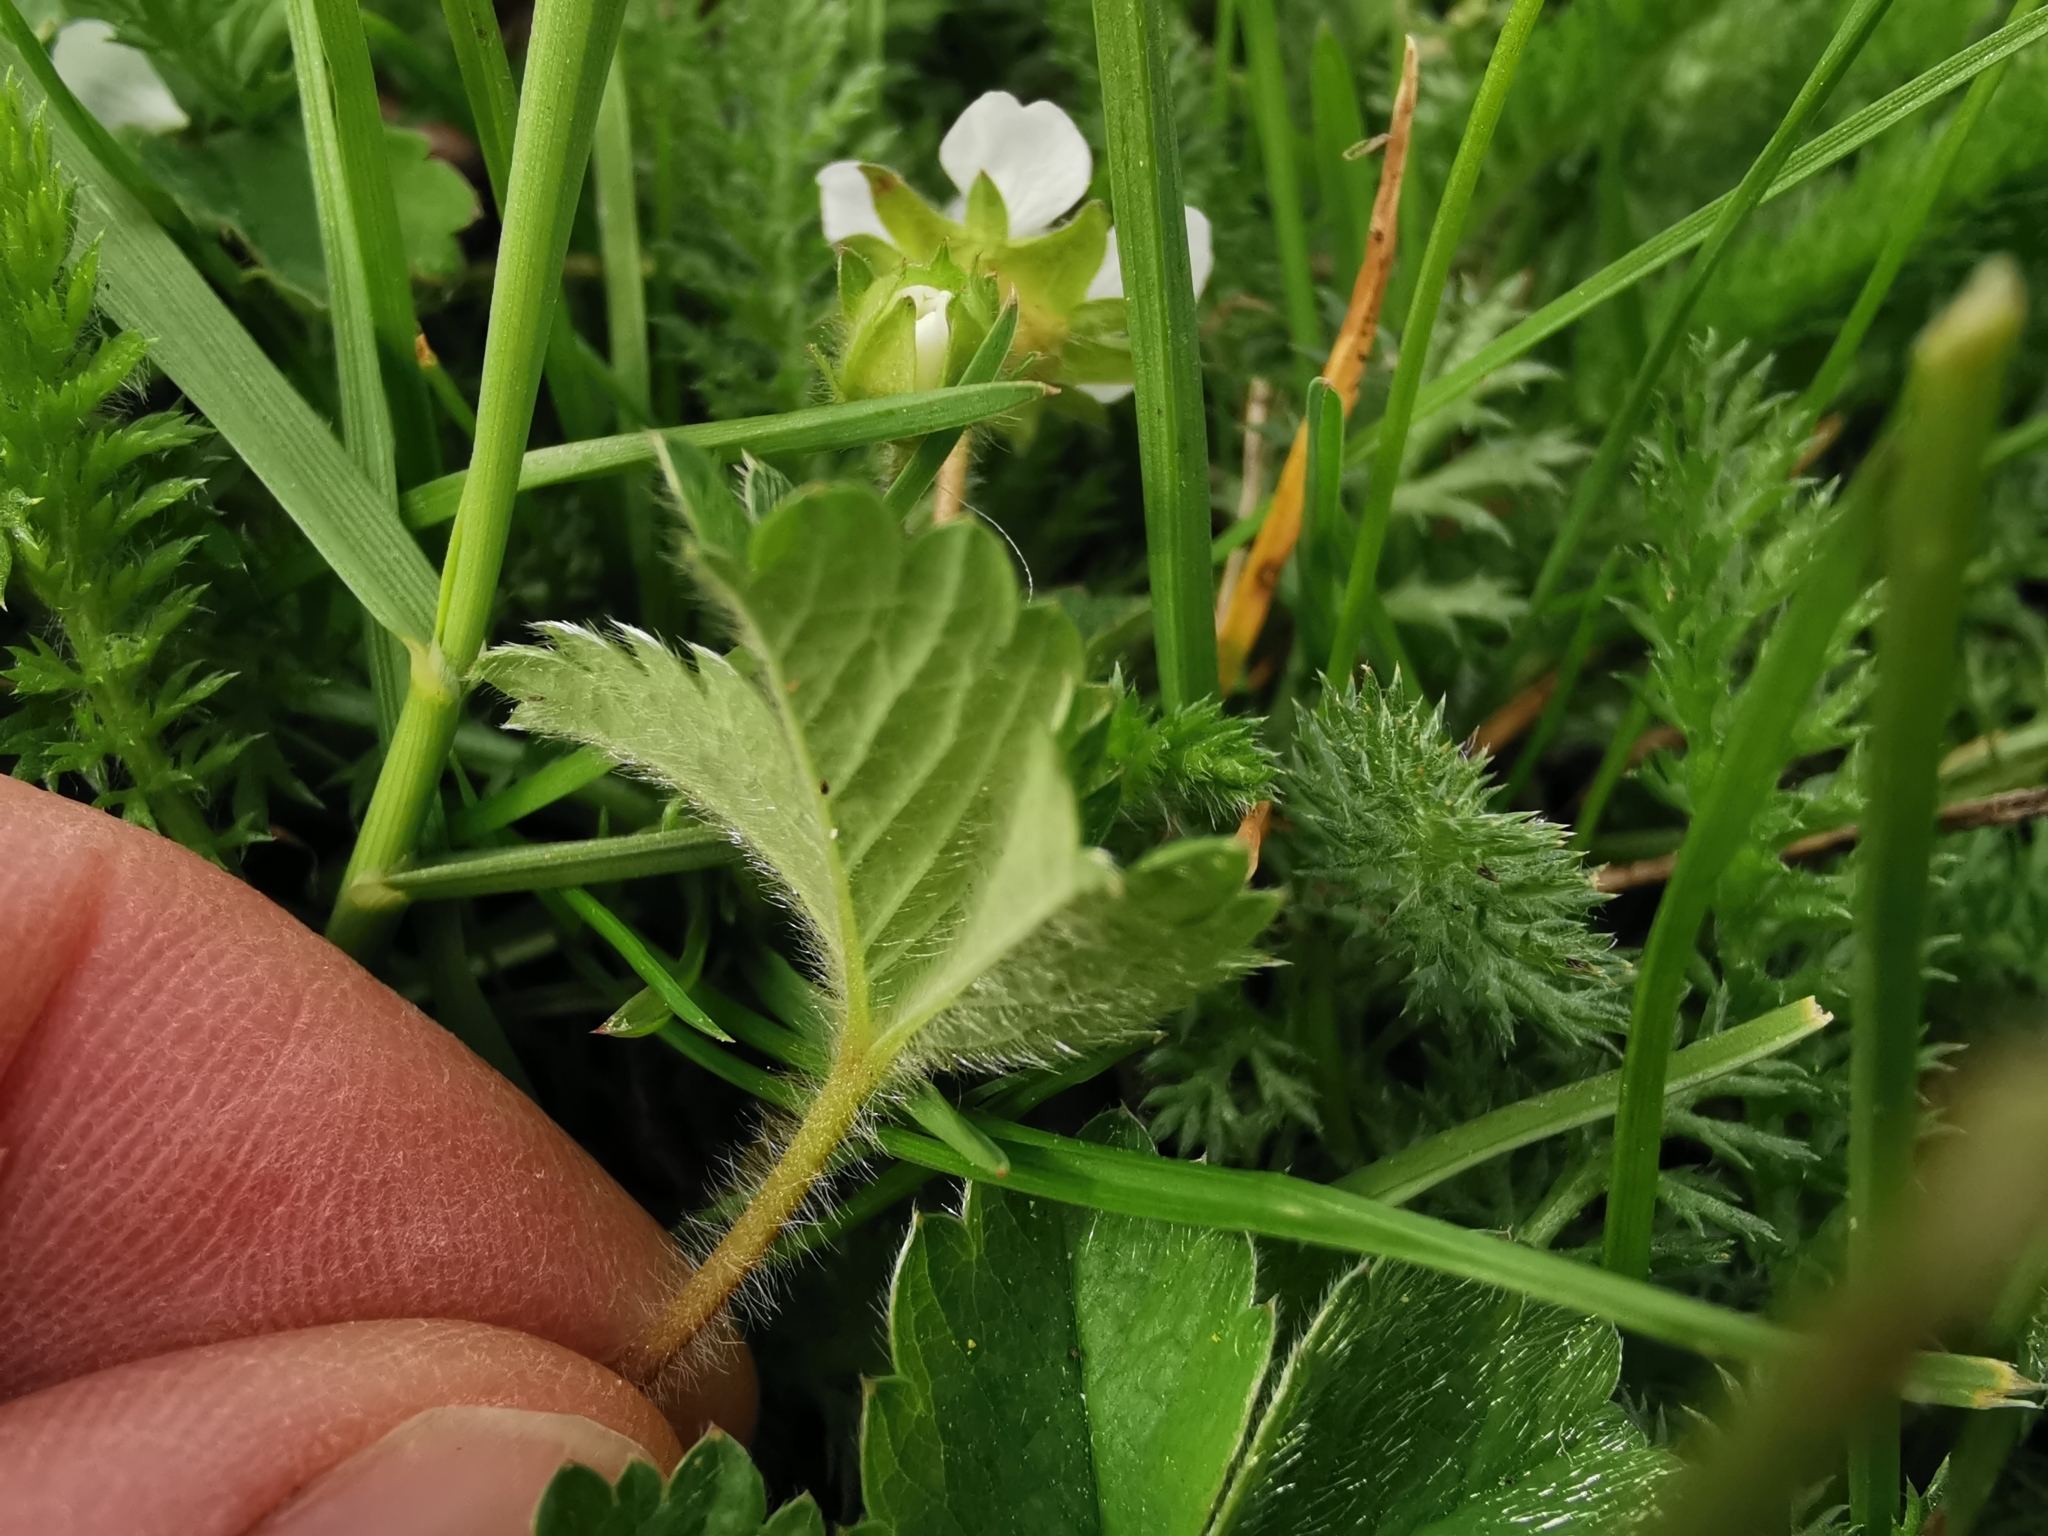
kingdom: Plantae
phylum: Tracheophyta
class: Magnoliopsida
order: Rosales
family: Rosaceae
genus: Potentilla
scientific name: Potentilla sterilis
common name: Barren strawberry
